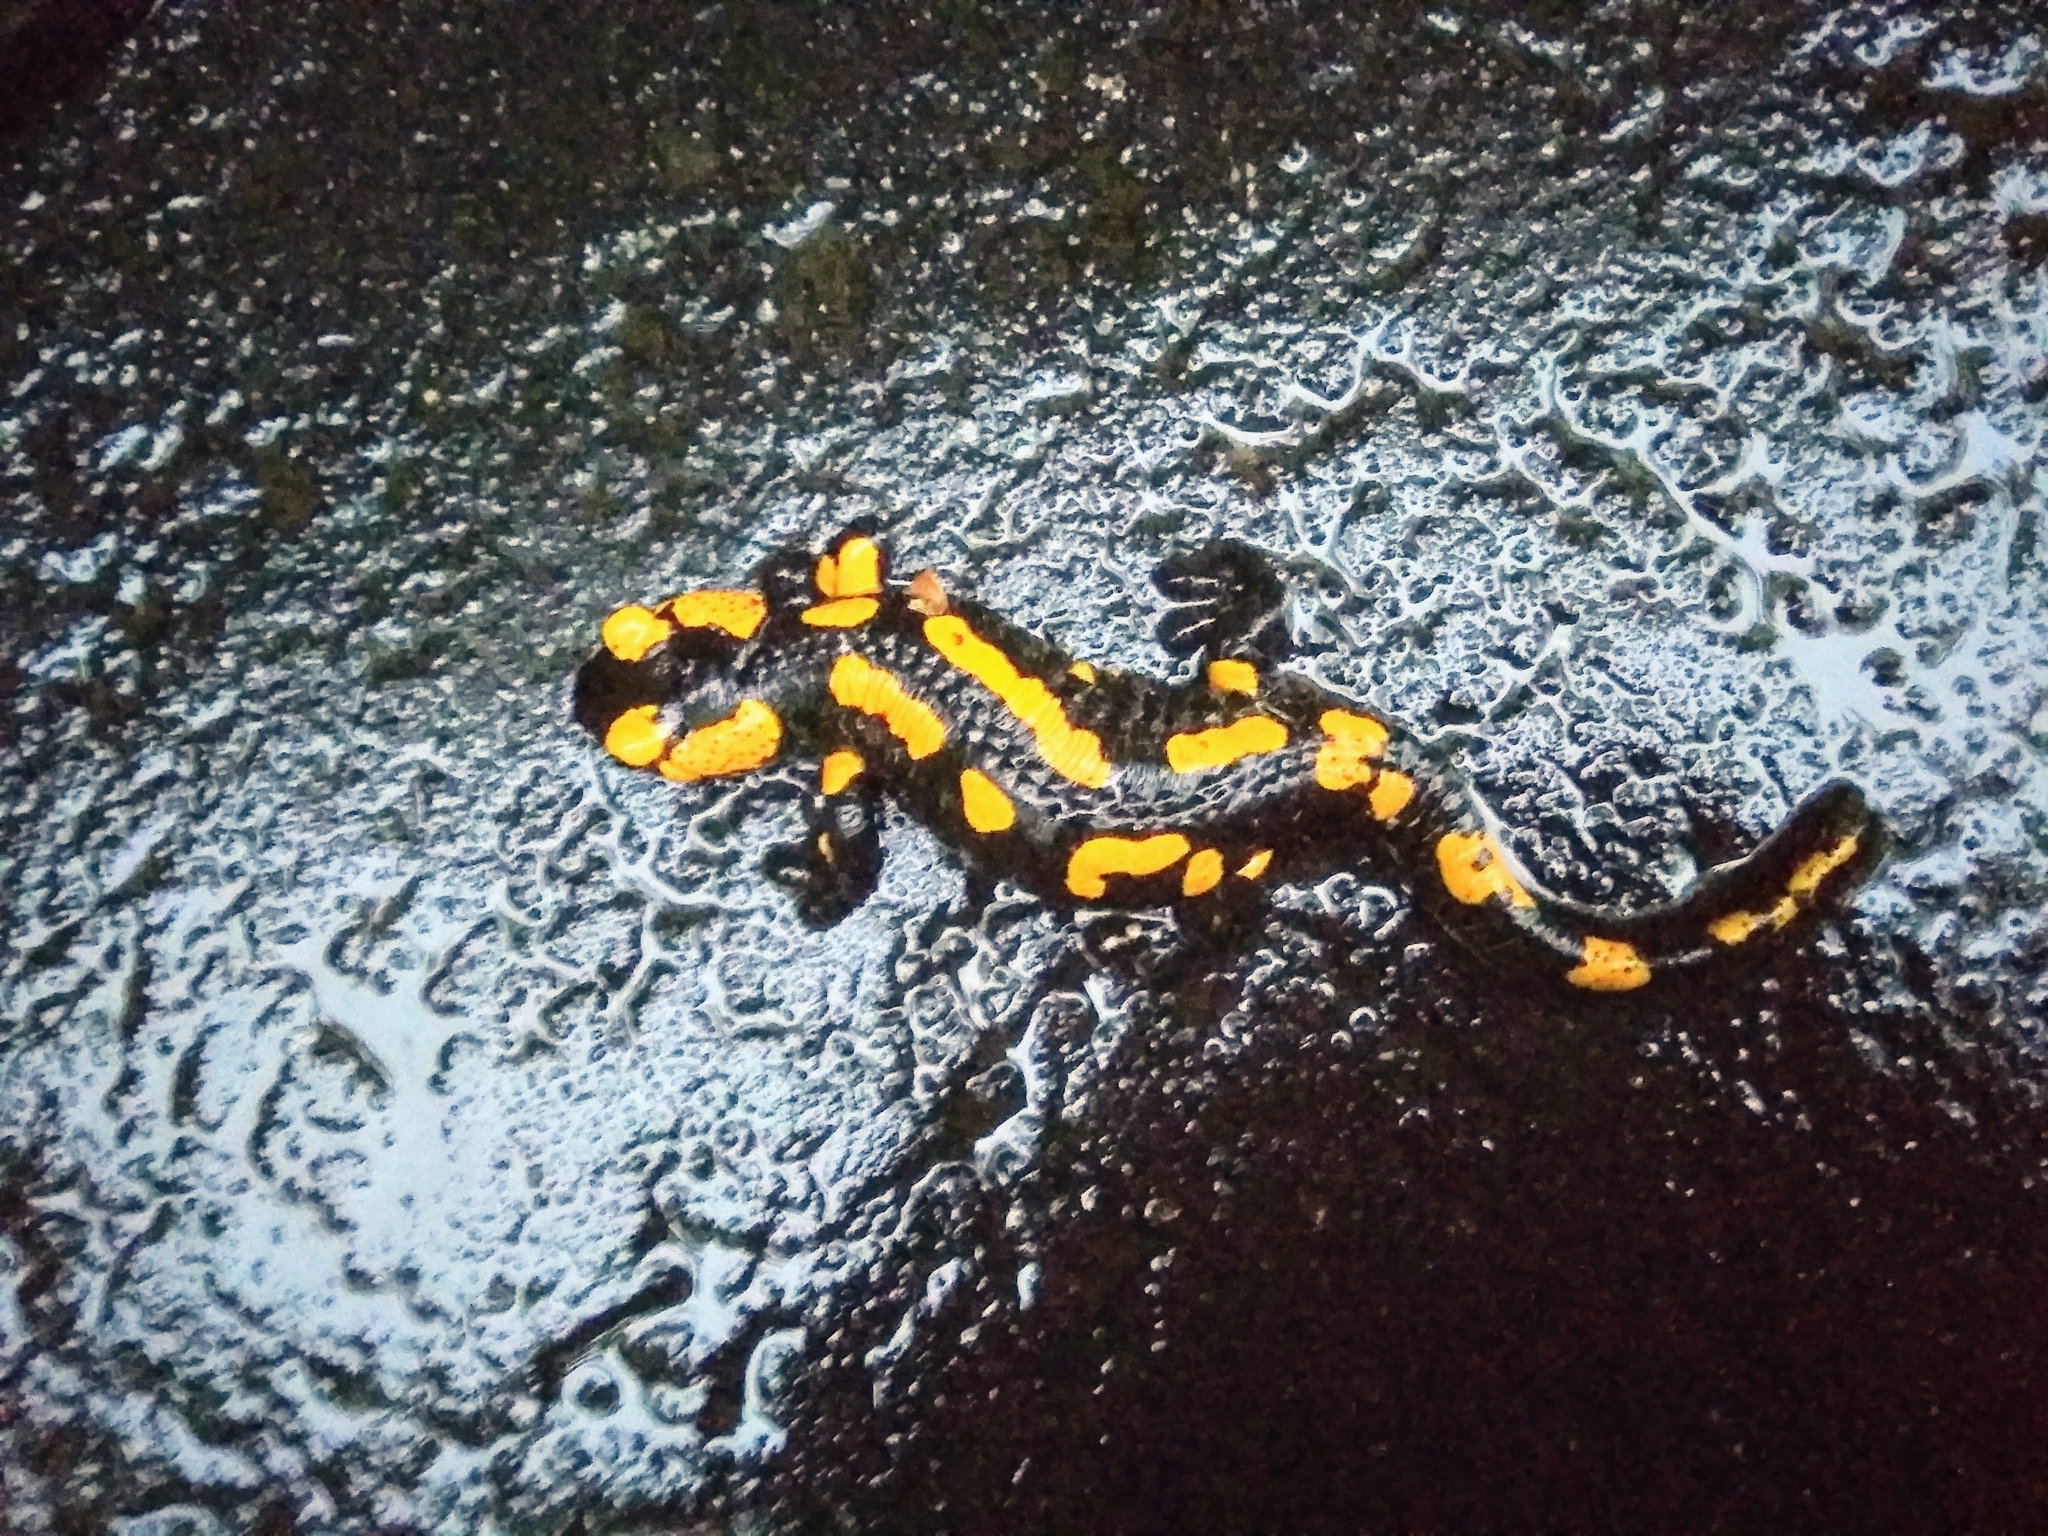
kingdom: Animalia
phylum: Chordata
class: Amphibia
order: Caudata
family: Salamandridae
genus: Salamandra
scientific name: Salamandra salamandra
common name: Fire salamander
